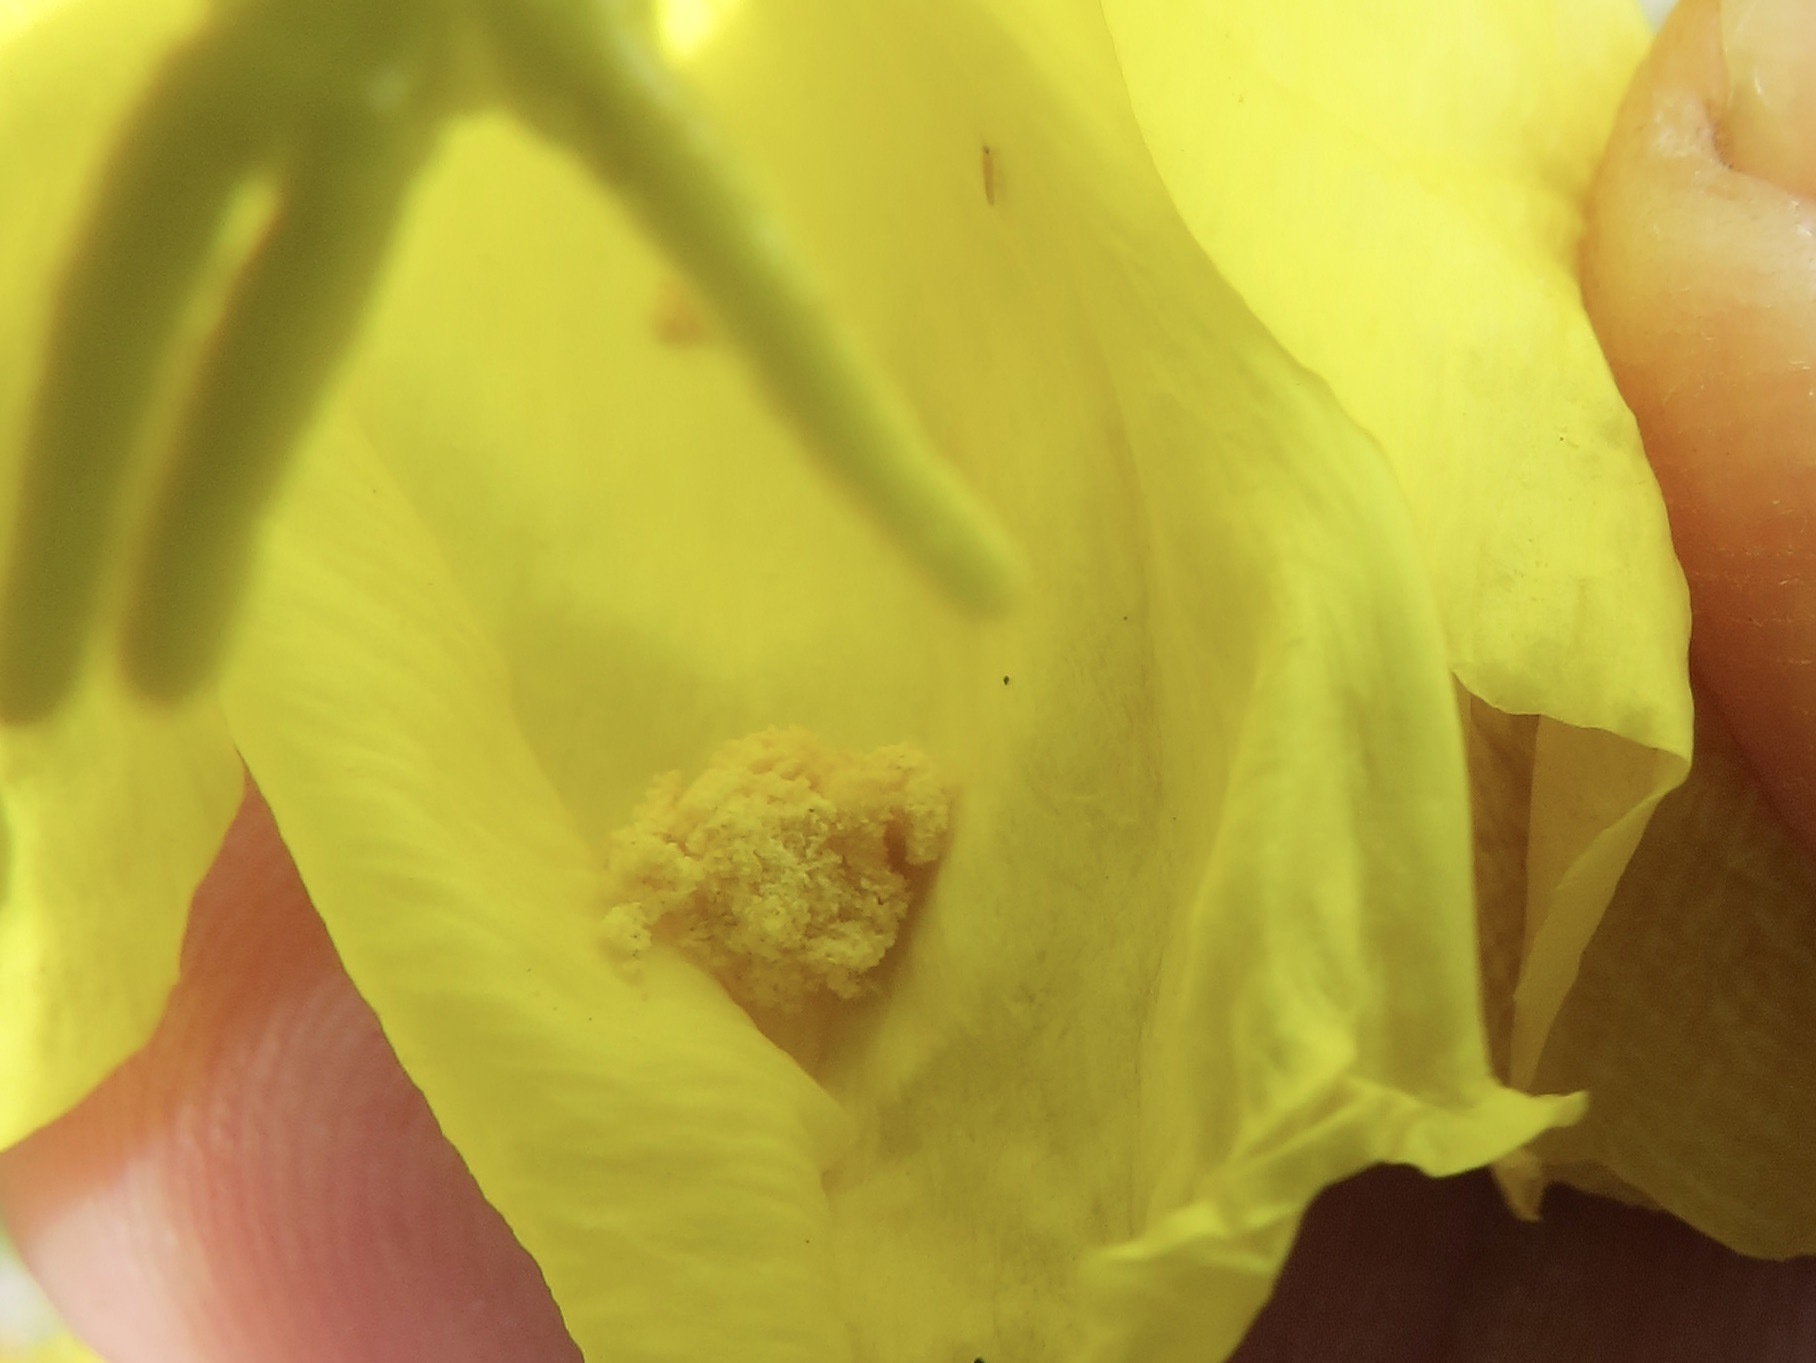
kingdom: Animalia
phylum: Arthropoda
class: Insecta
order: Hymenoptera
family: Halictidae
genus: Agapostemon
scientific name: Agapostemon texanus
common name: Texas striped sweat bee
